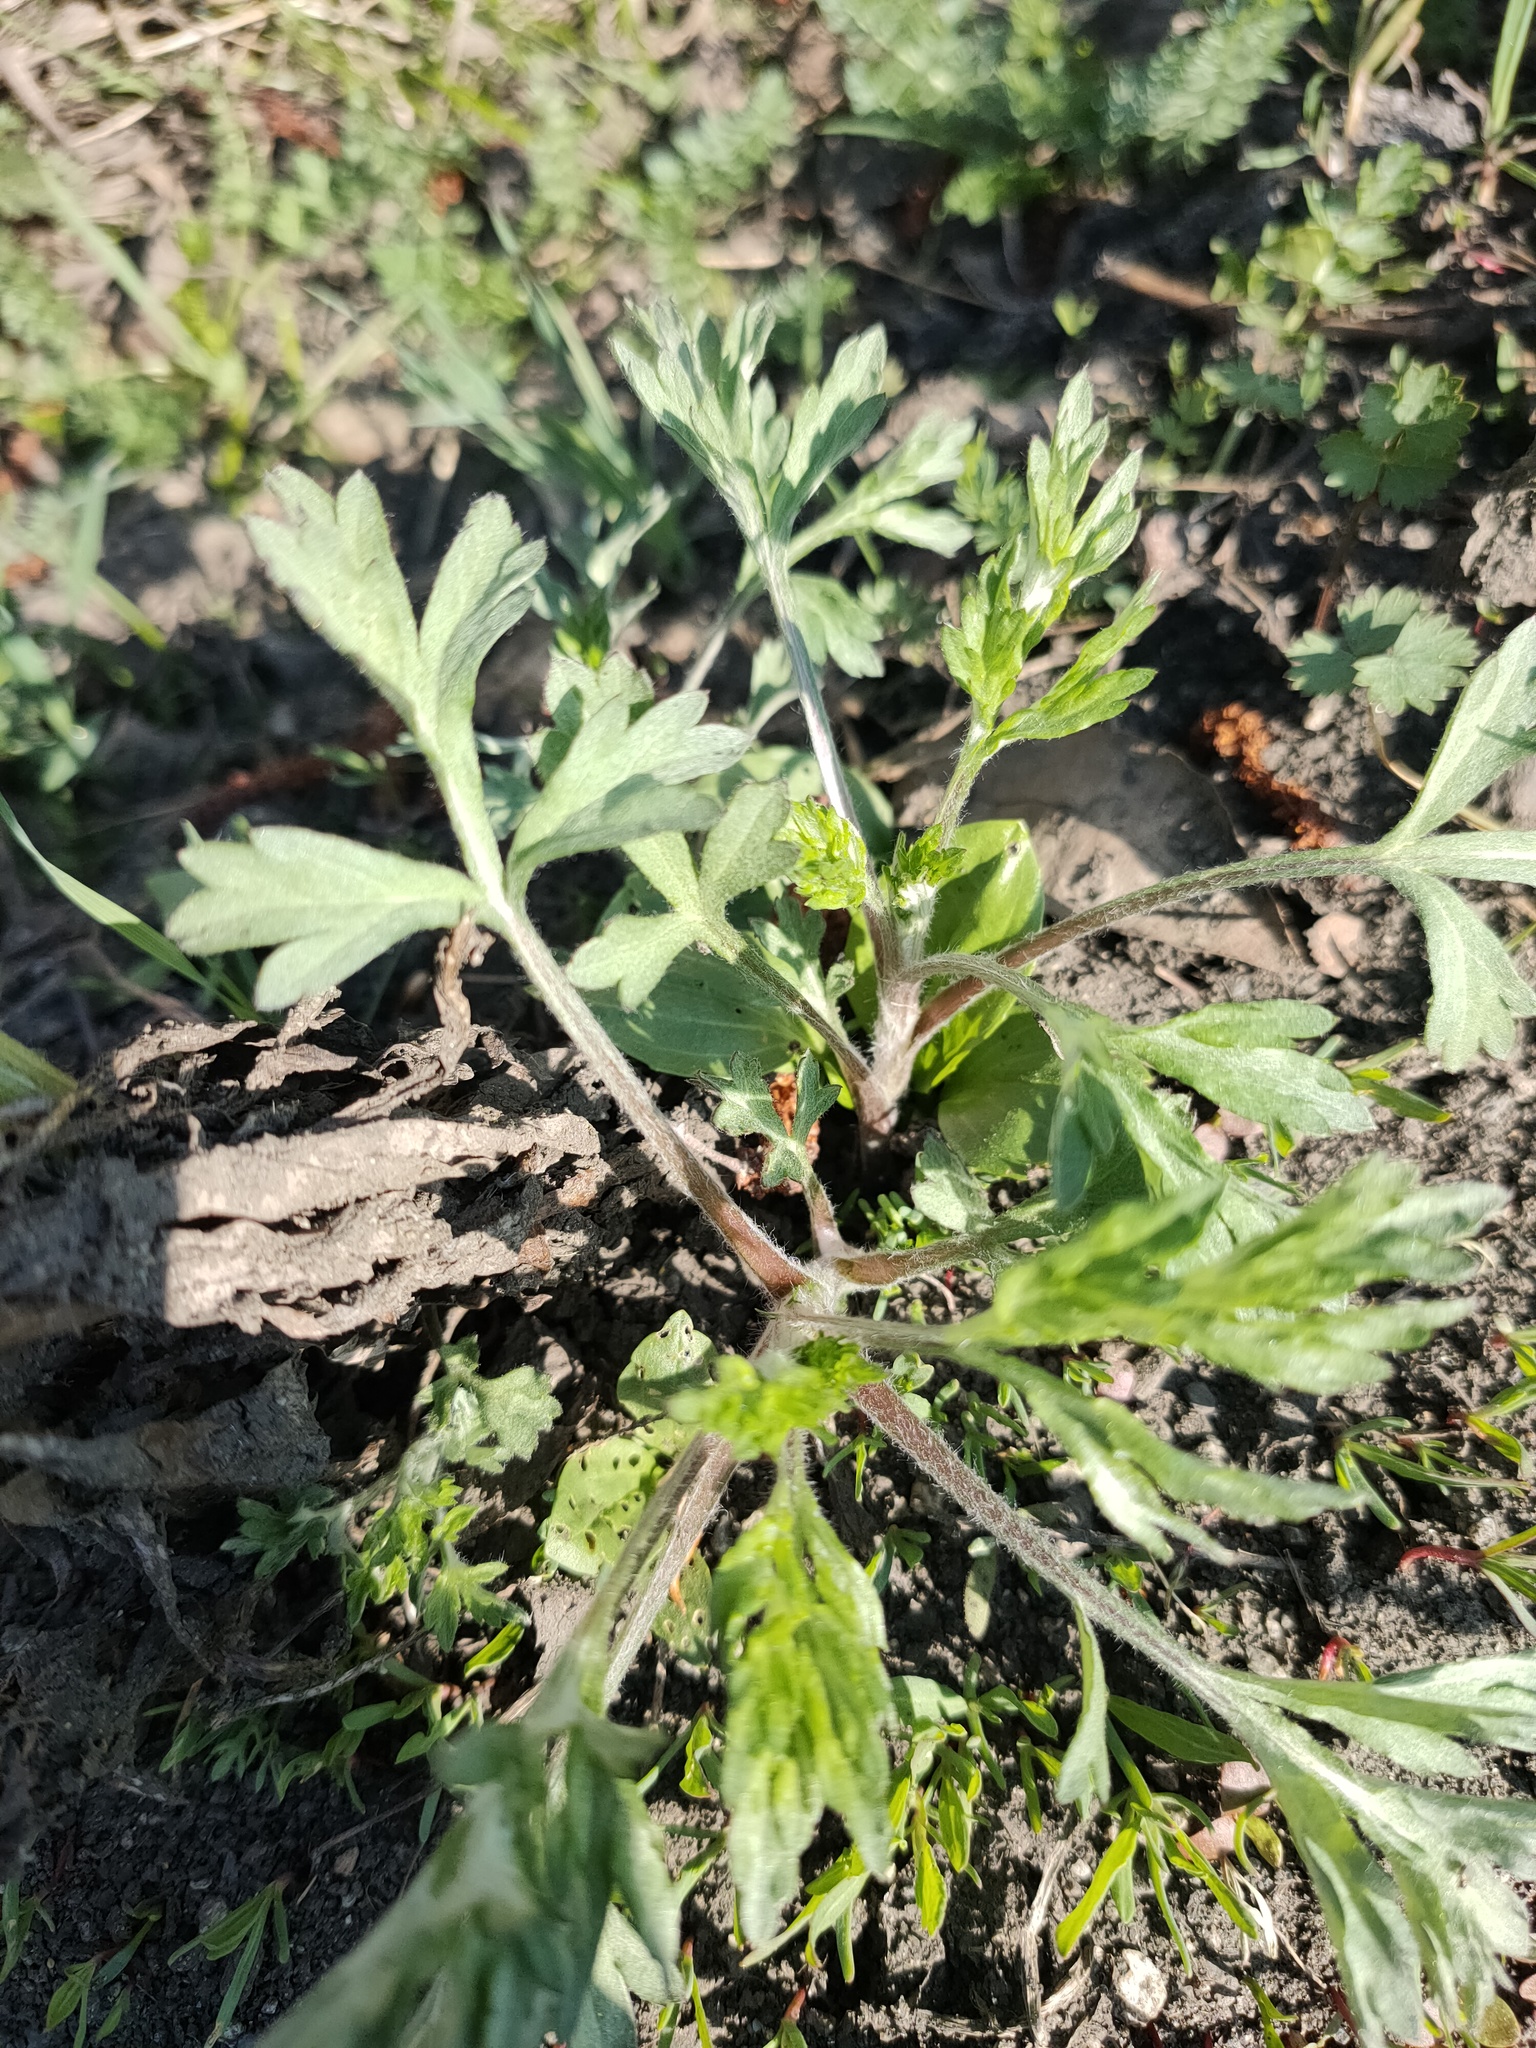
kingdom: Plantae
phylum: Tracheophyta
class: Magnoliopsida
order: Asterales
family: Asteraceae
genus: Artemisia
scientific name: Artemisia vulgaris
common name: Mugwort
